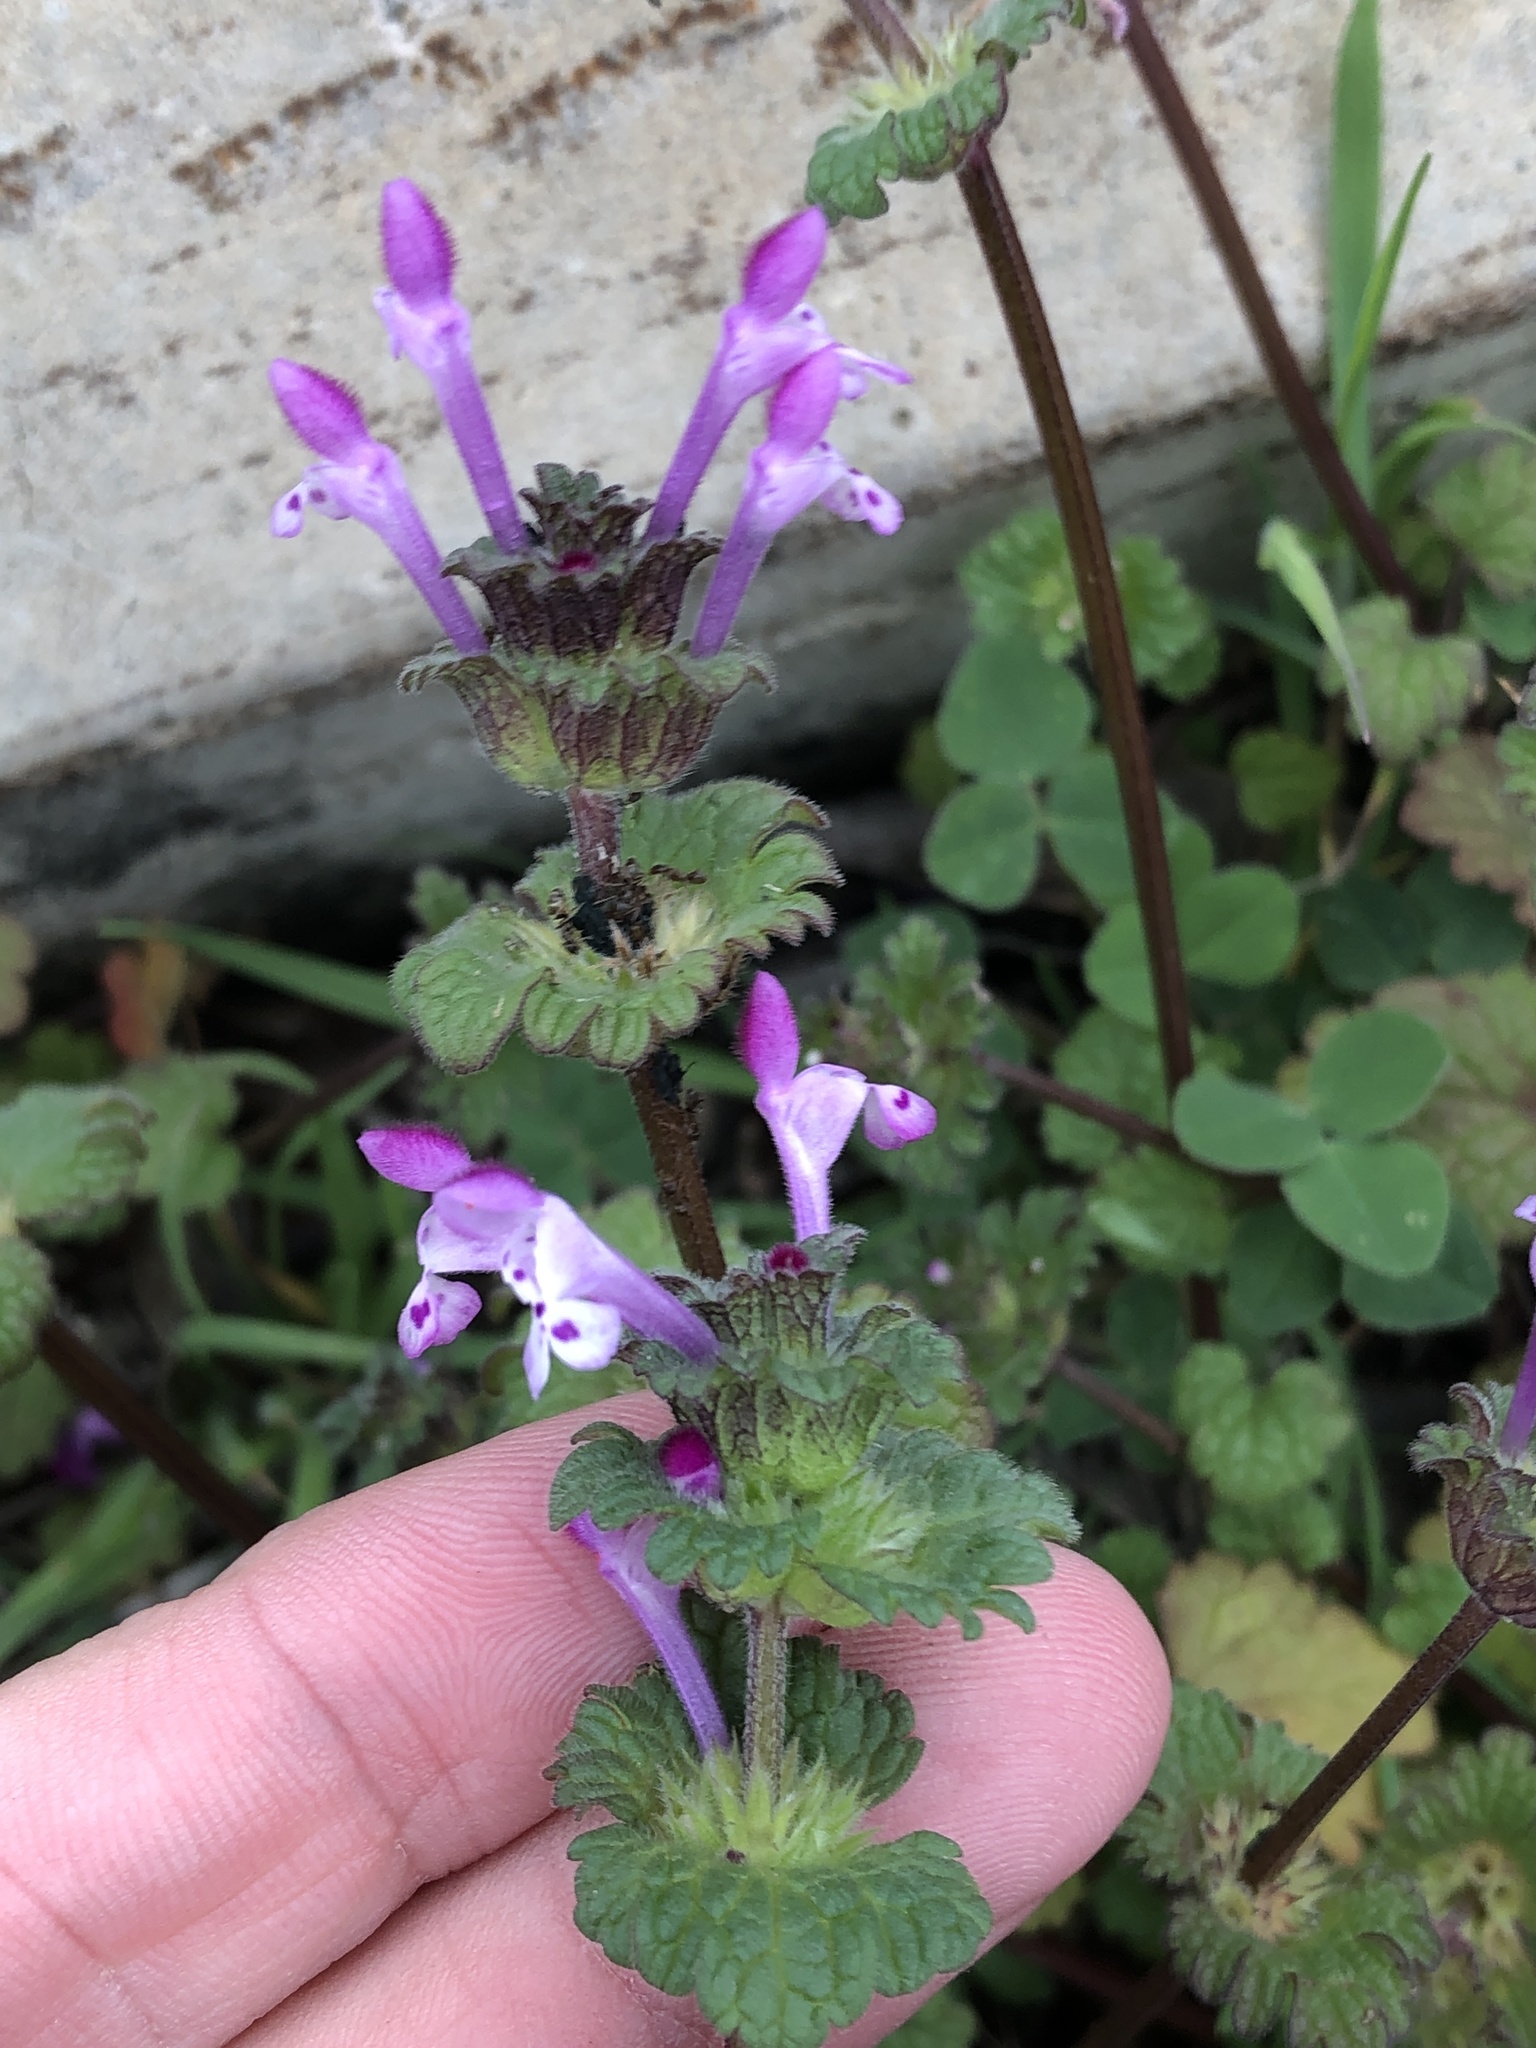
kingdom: Plantae
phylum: Tracheophyta
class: Magnoliopsida
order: Lamiales
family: Lamiaceae
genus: Lamium
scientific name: Lamium amplexicaule
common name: Henbit dead-nettle
